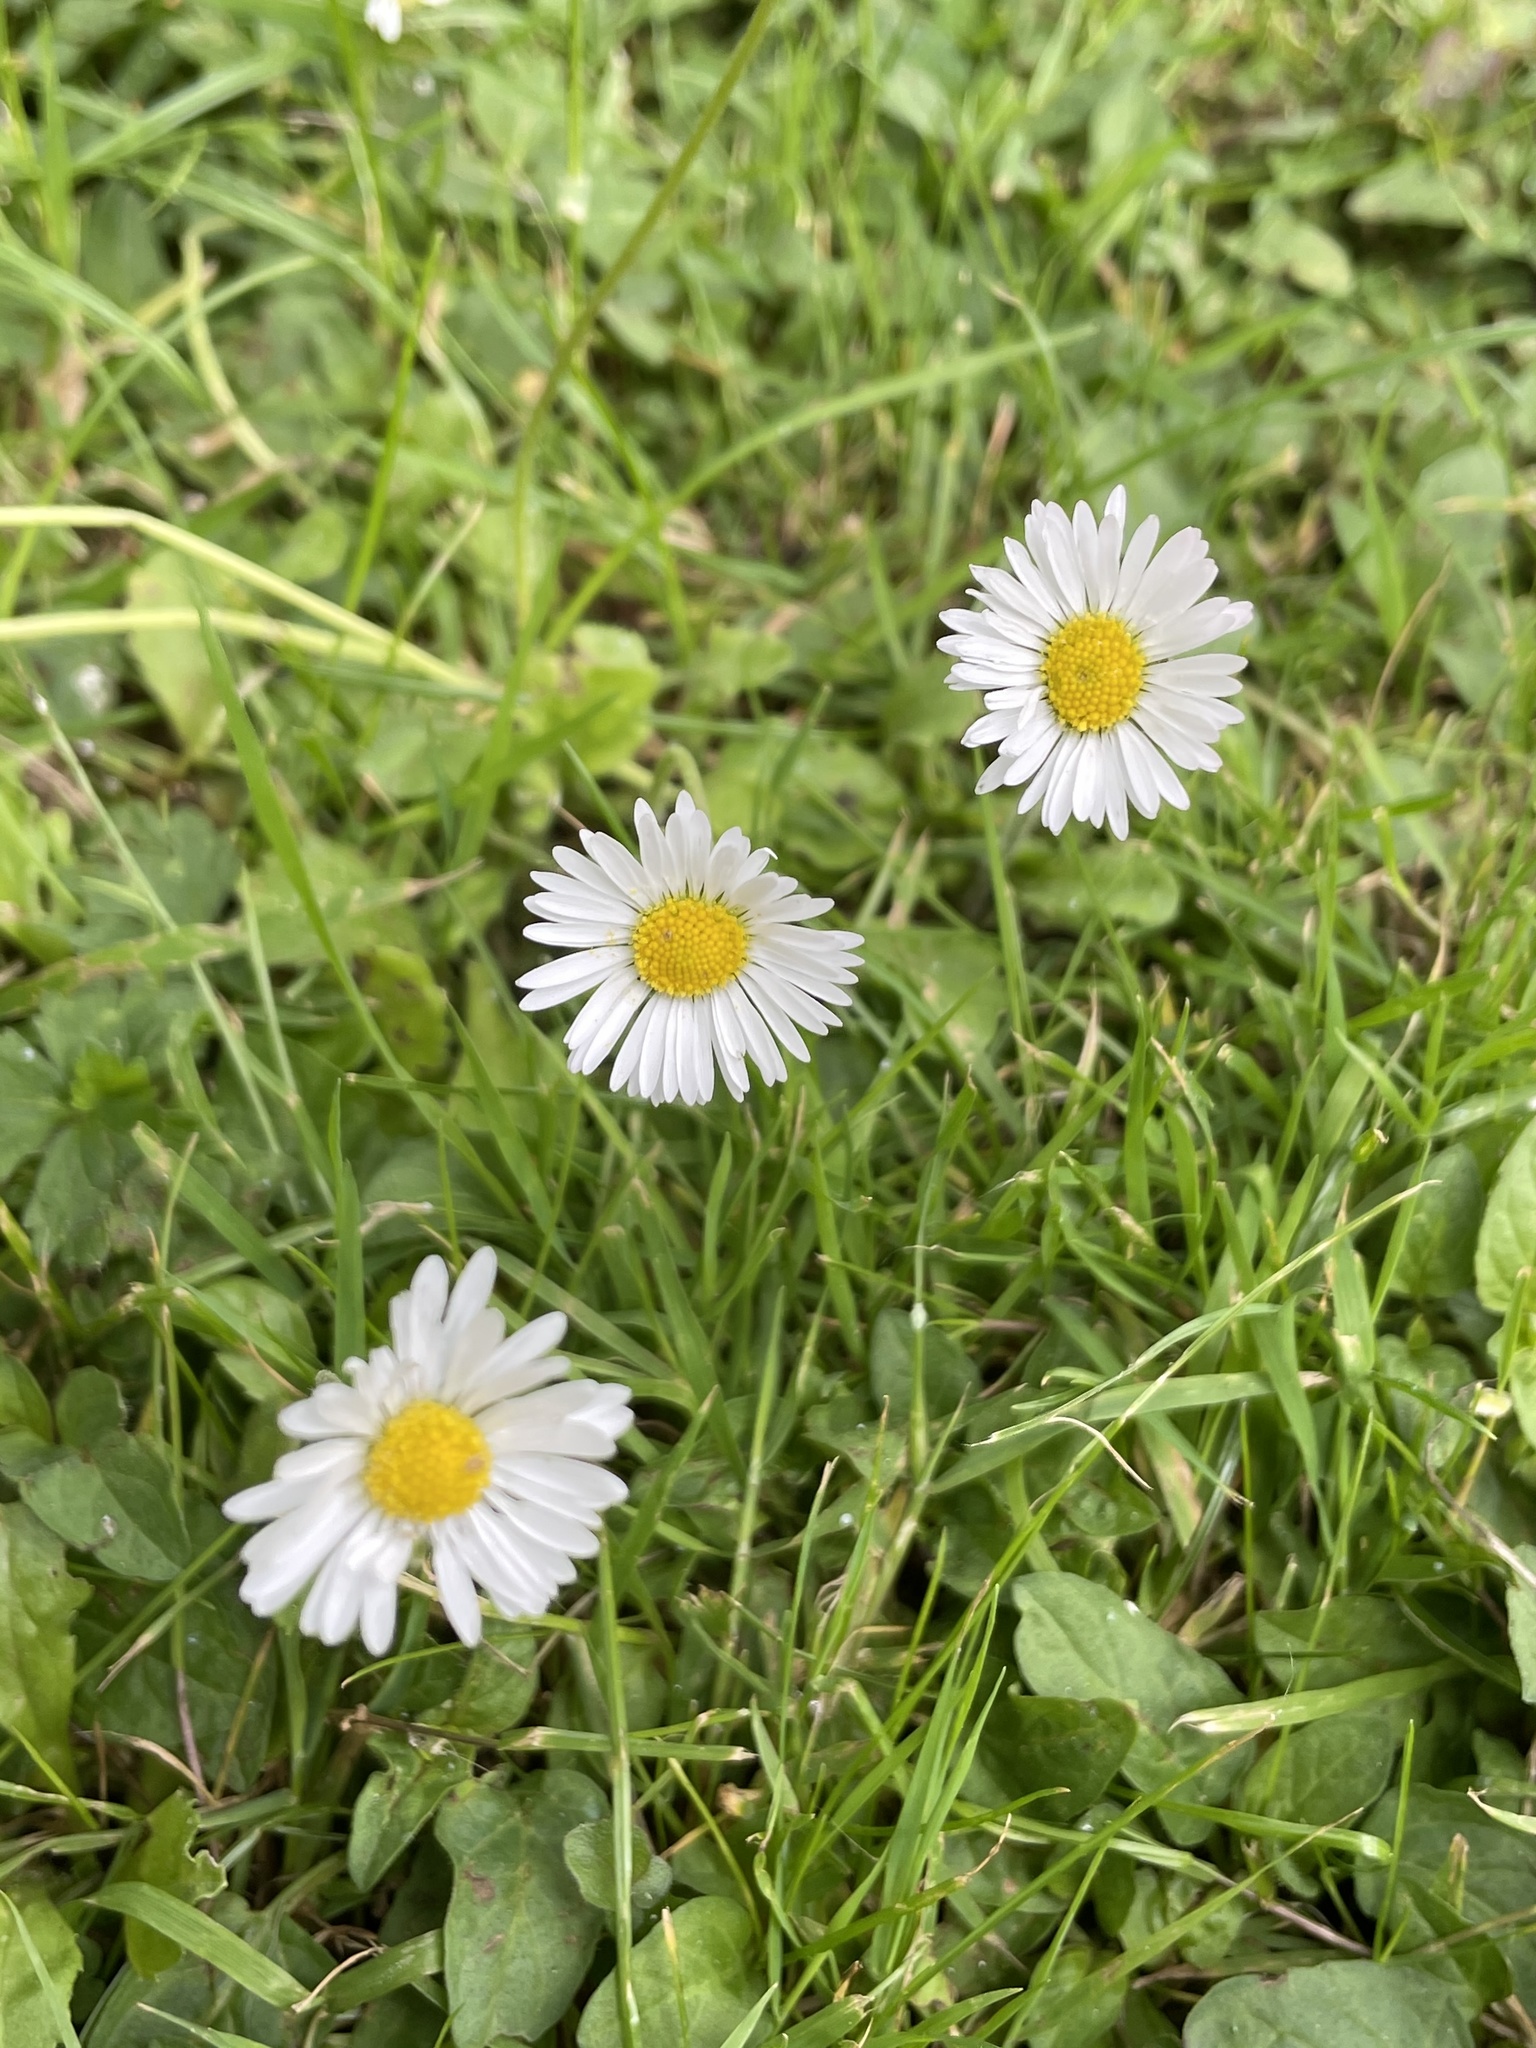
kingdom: Plantae
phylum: Tracheophyta
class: Magnoliopsida
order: Asterales
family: Asteraceae
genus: Bellis
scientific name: Bellis perennis
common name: Lawndaisy
